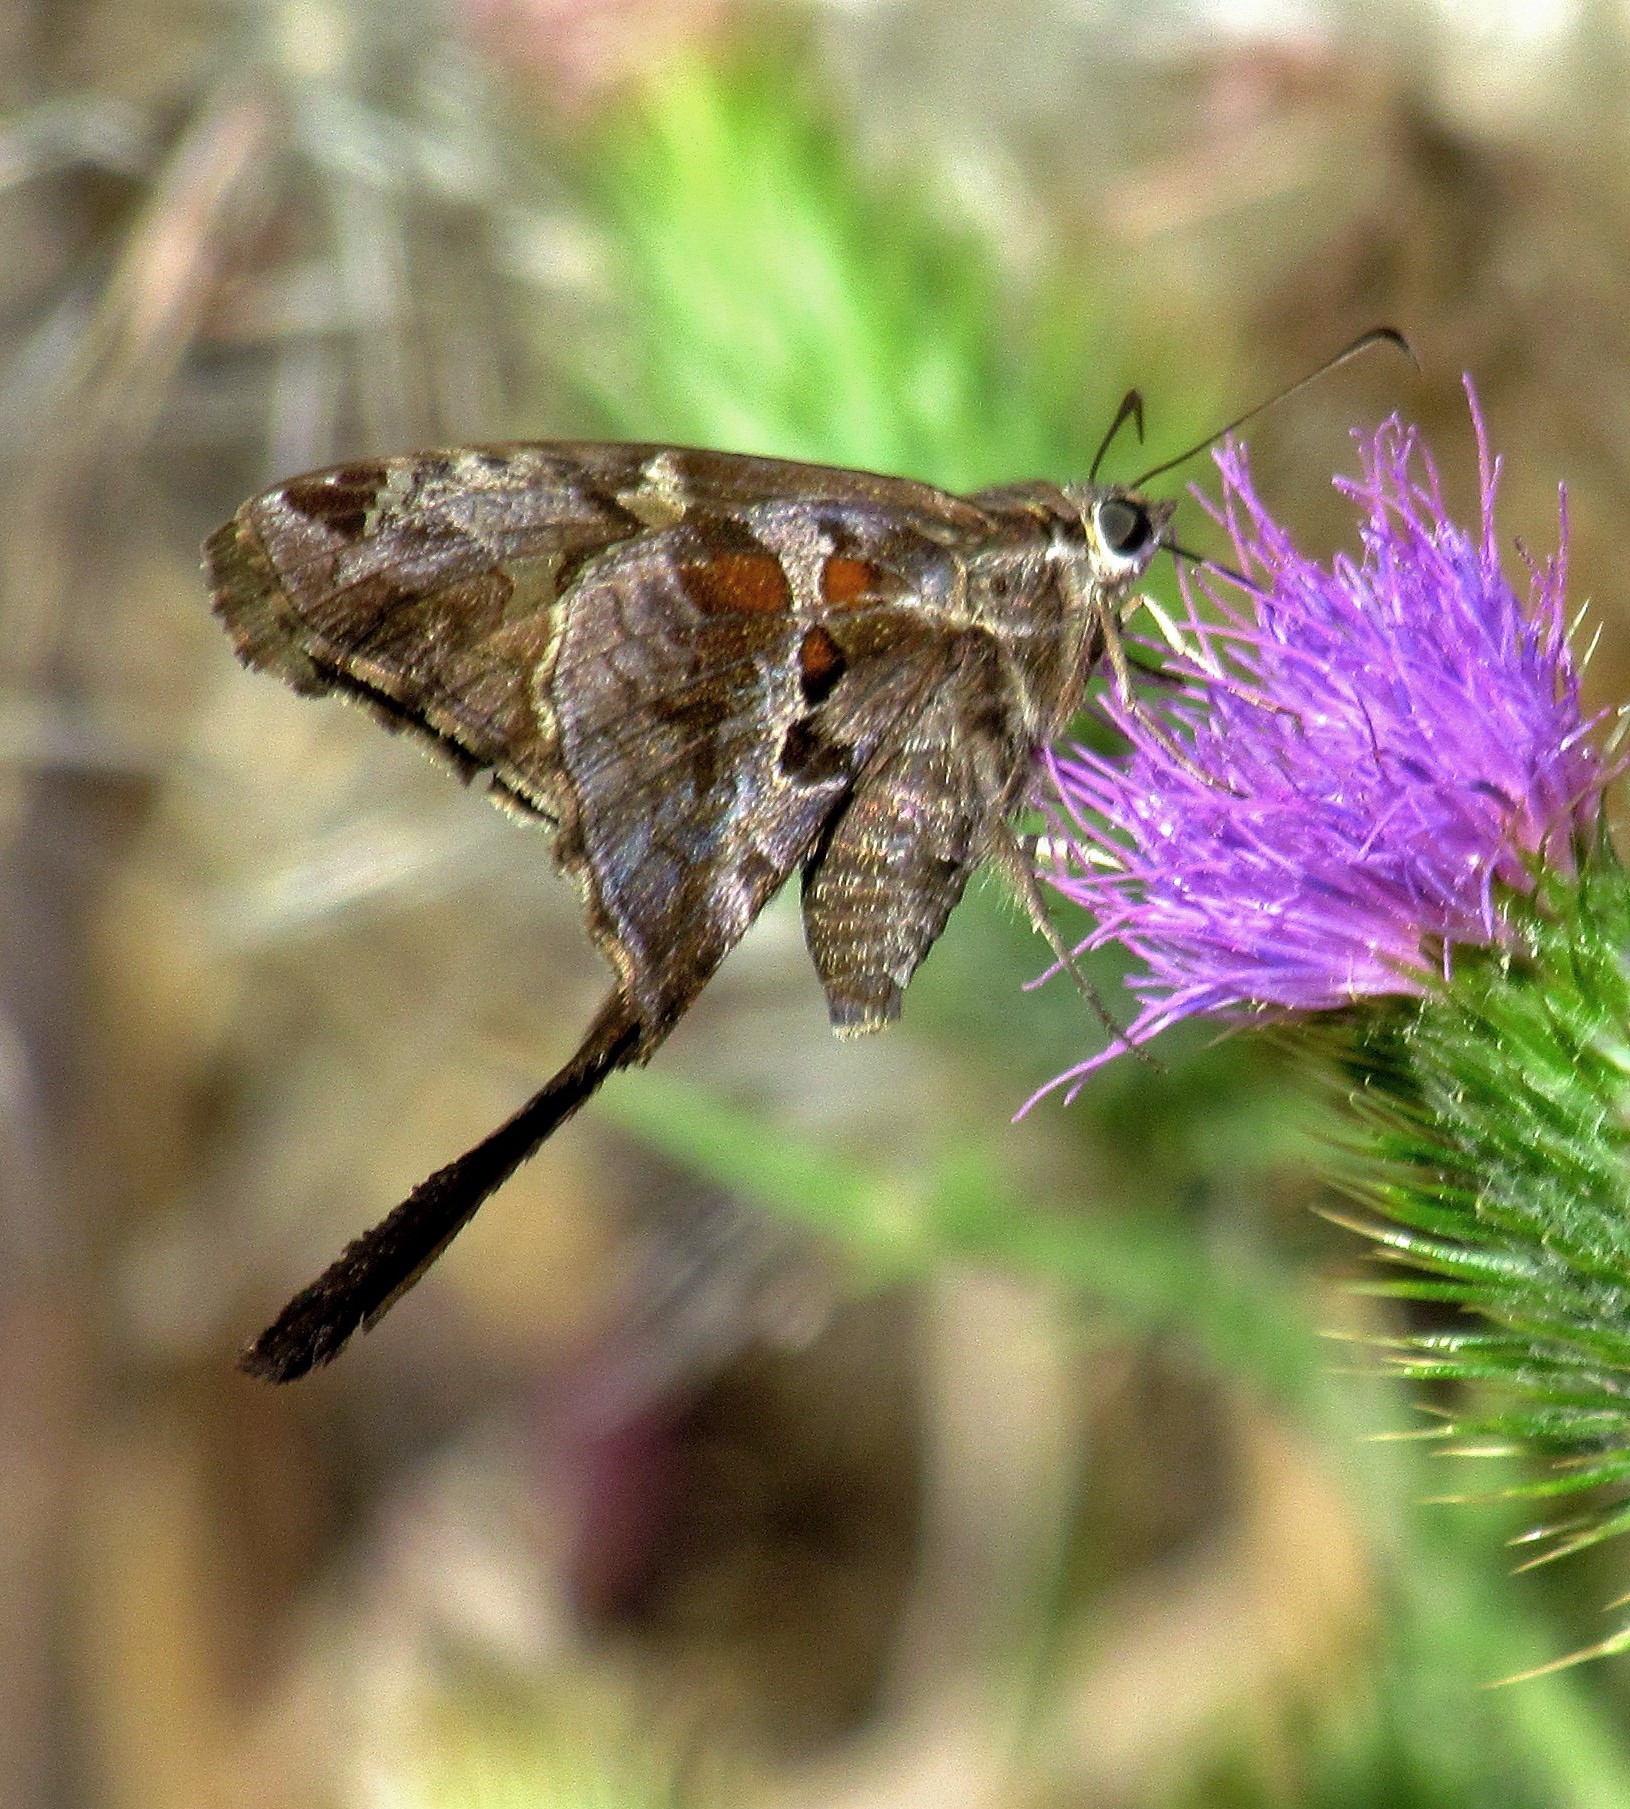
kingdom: Animalia
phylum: Arthropoda
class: Insecta
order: Lepidoptera
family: Hesperiidae
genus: Chioides
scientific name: Chioides catillus
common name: Silverbanded skipper
